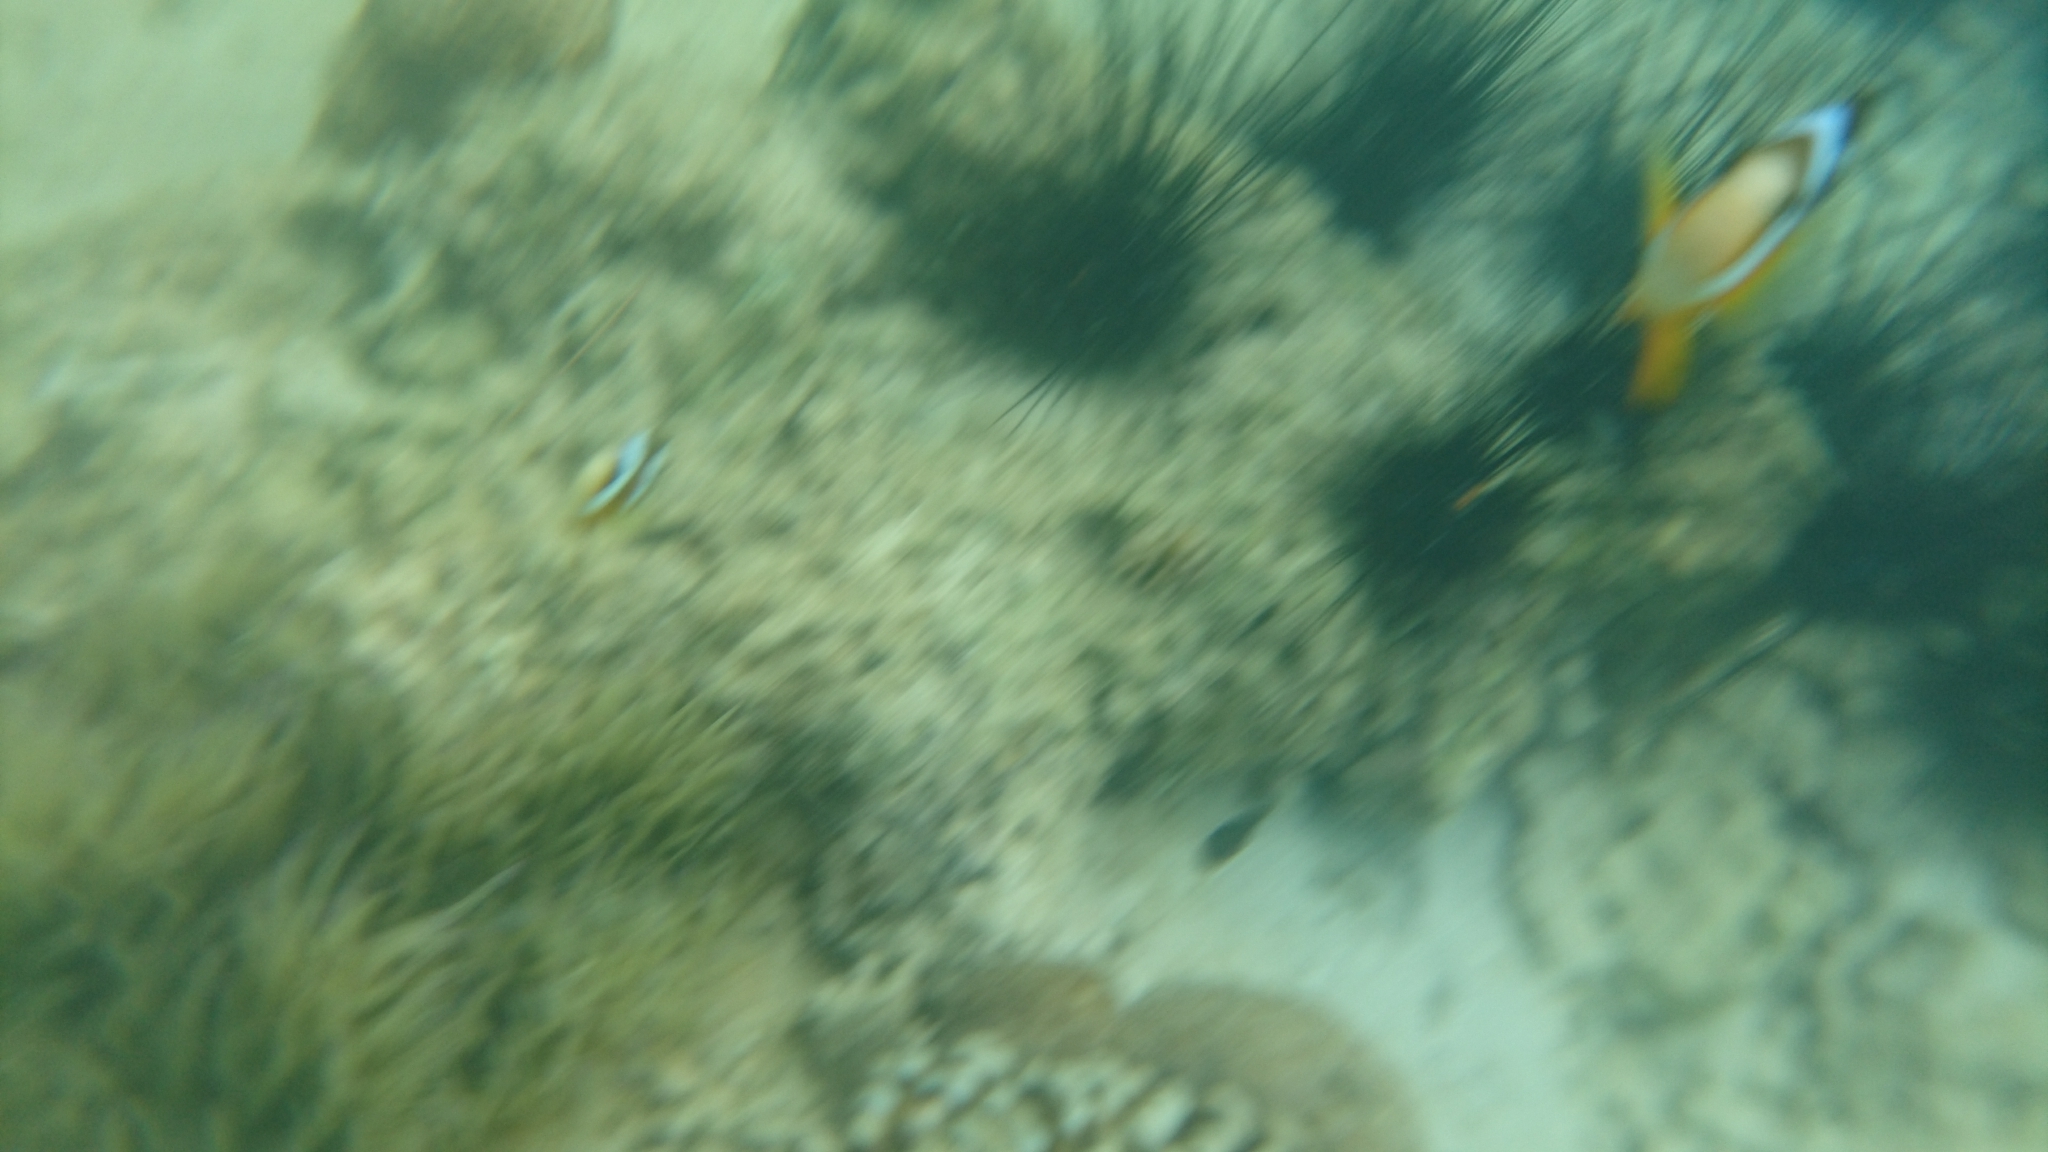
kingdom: Animalia
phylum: Chordata
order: Perciformes
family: Pomacentridae
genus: Amphiprion
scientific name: Amphiprion clarkii
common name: Clark's anemonefish
